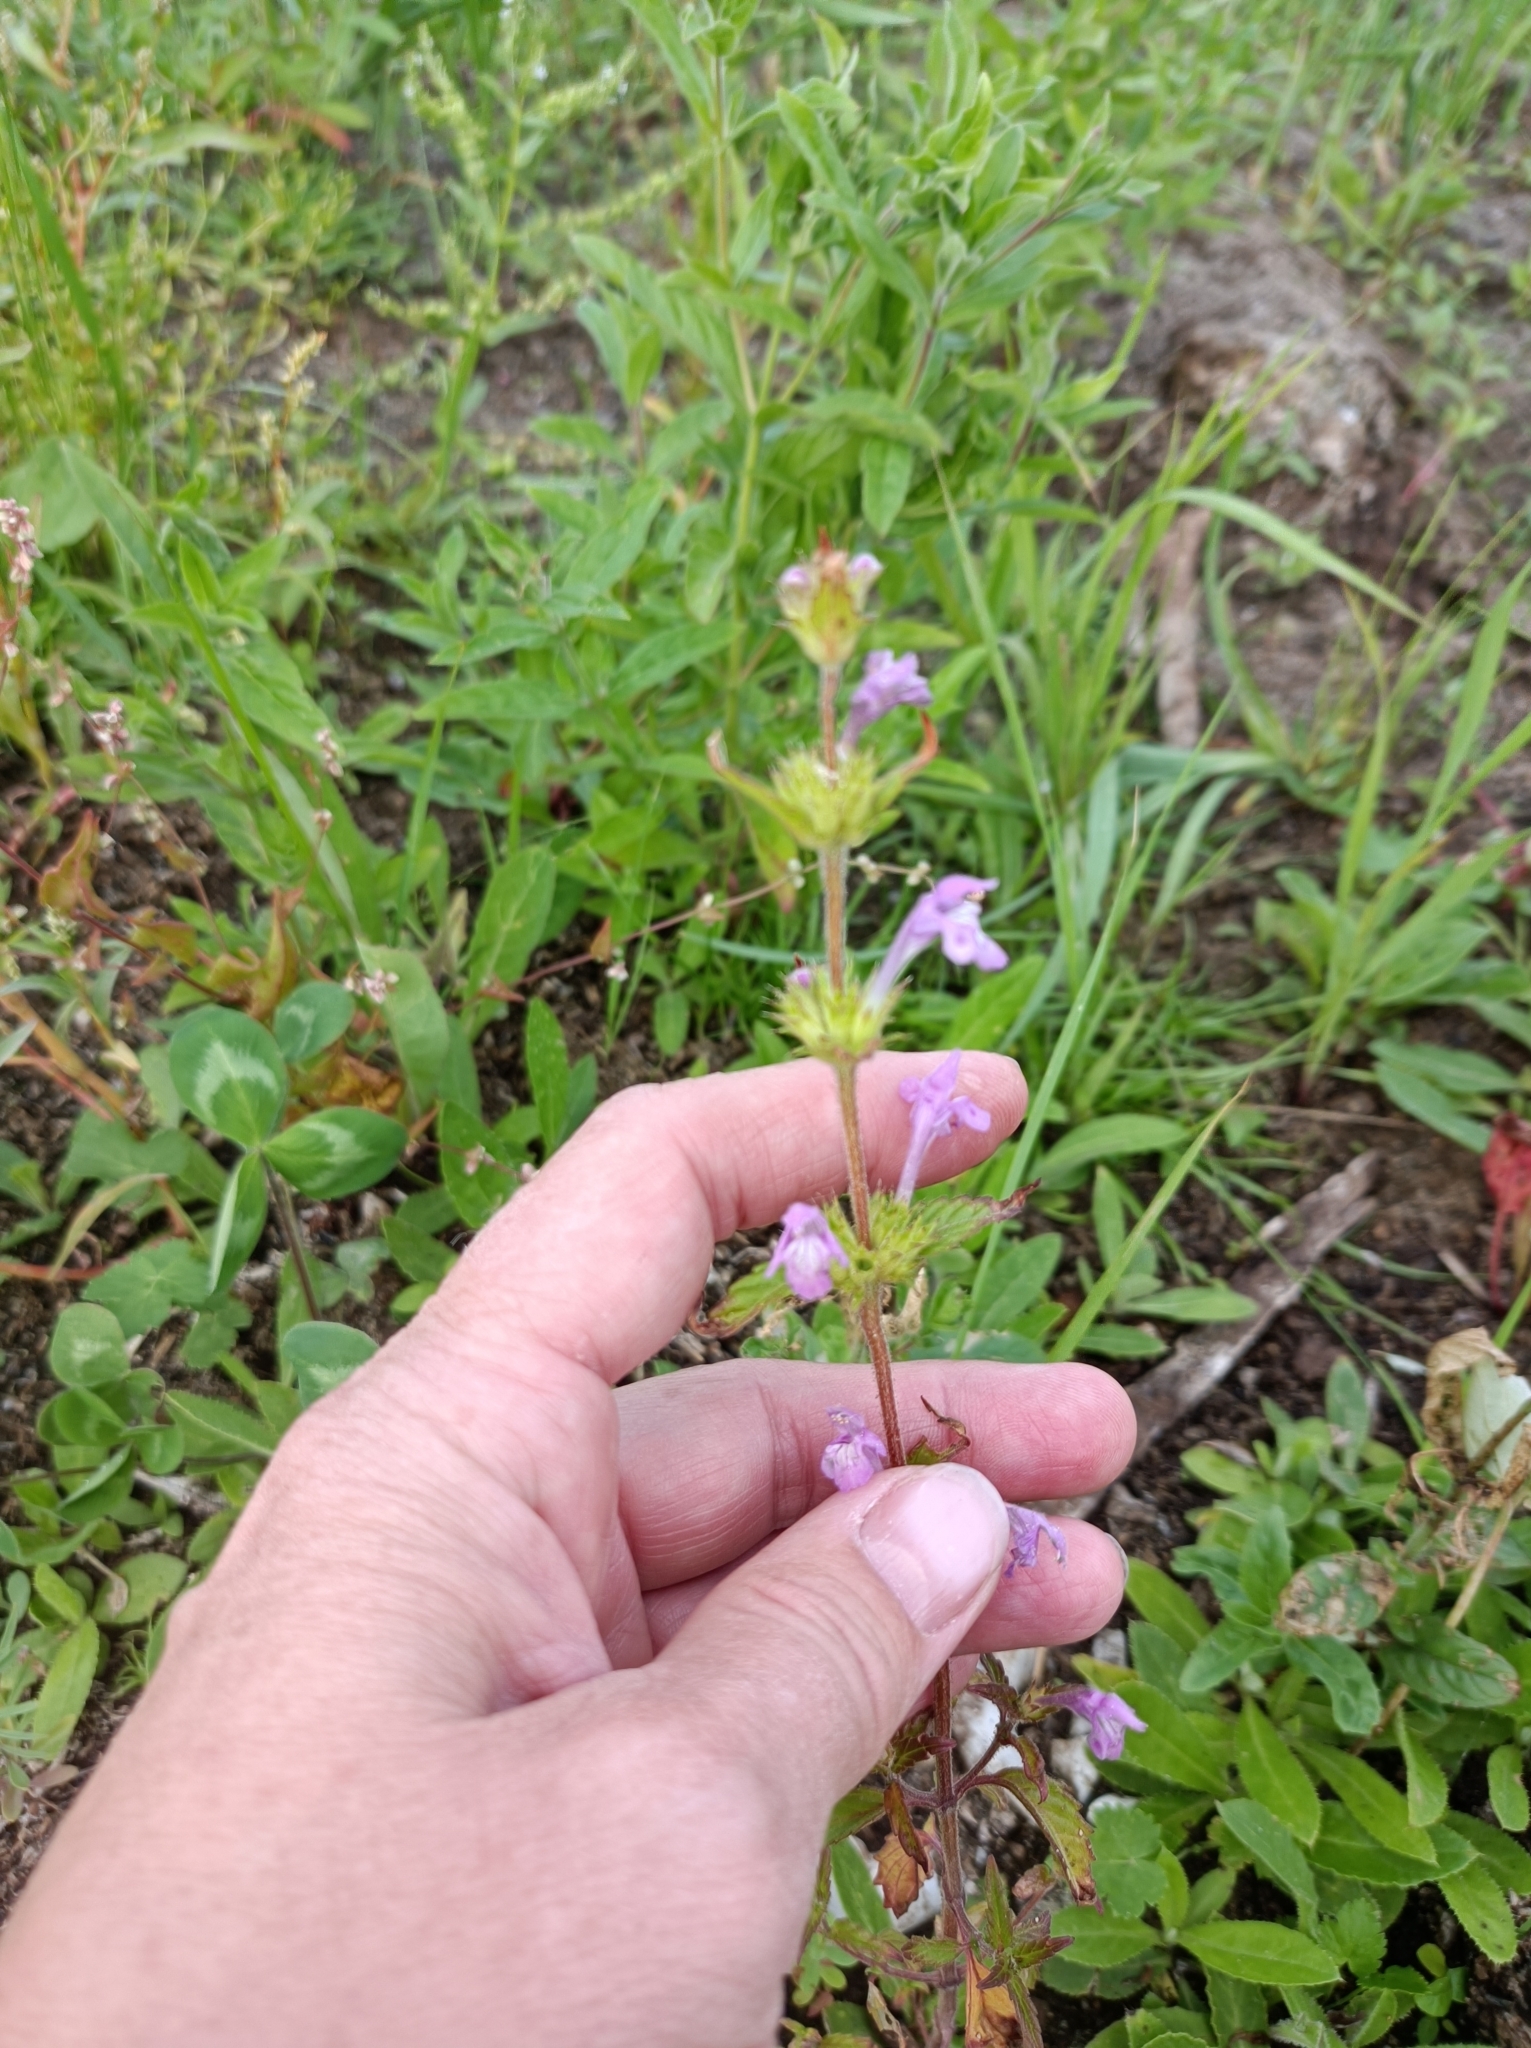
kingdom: Plantae
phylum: Tracheophyta
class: Magnoliopsida
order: Lamiales
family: Lamiaceae
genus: Galeopsis
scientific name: Galeopsis ladanum
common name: Broad-leaved hemp-nettle
